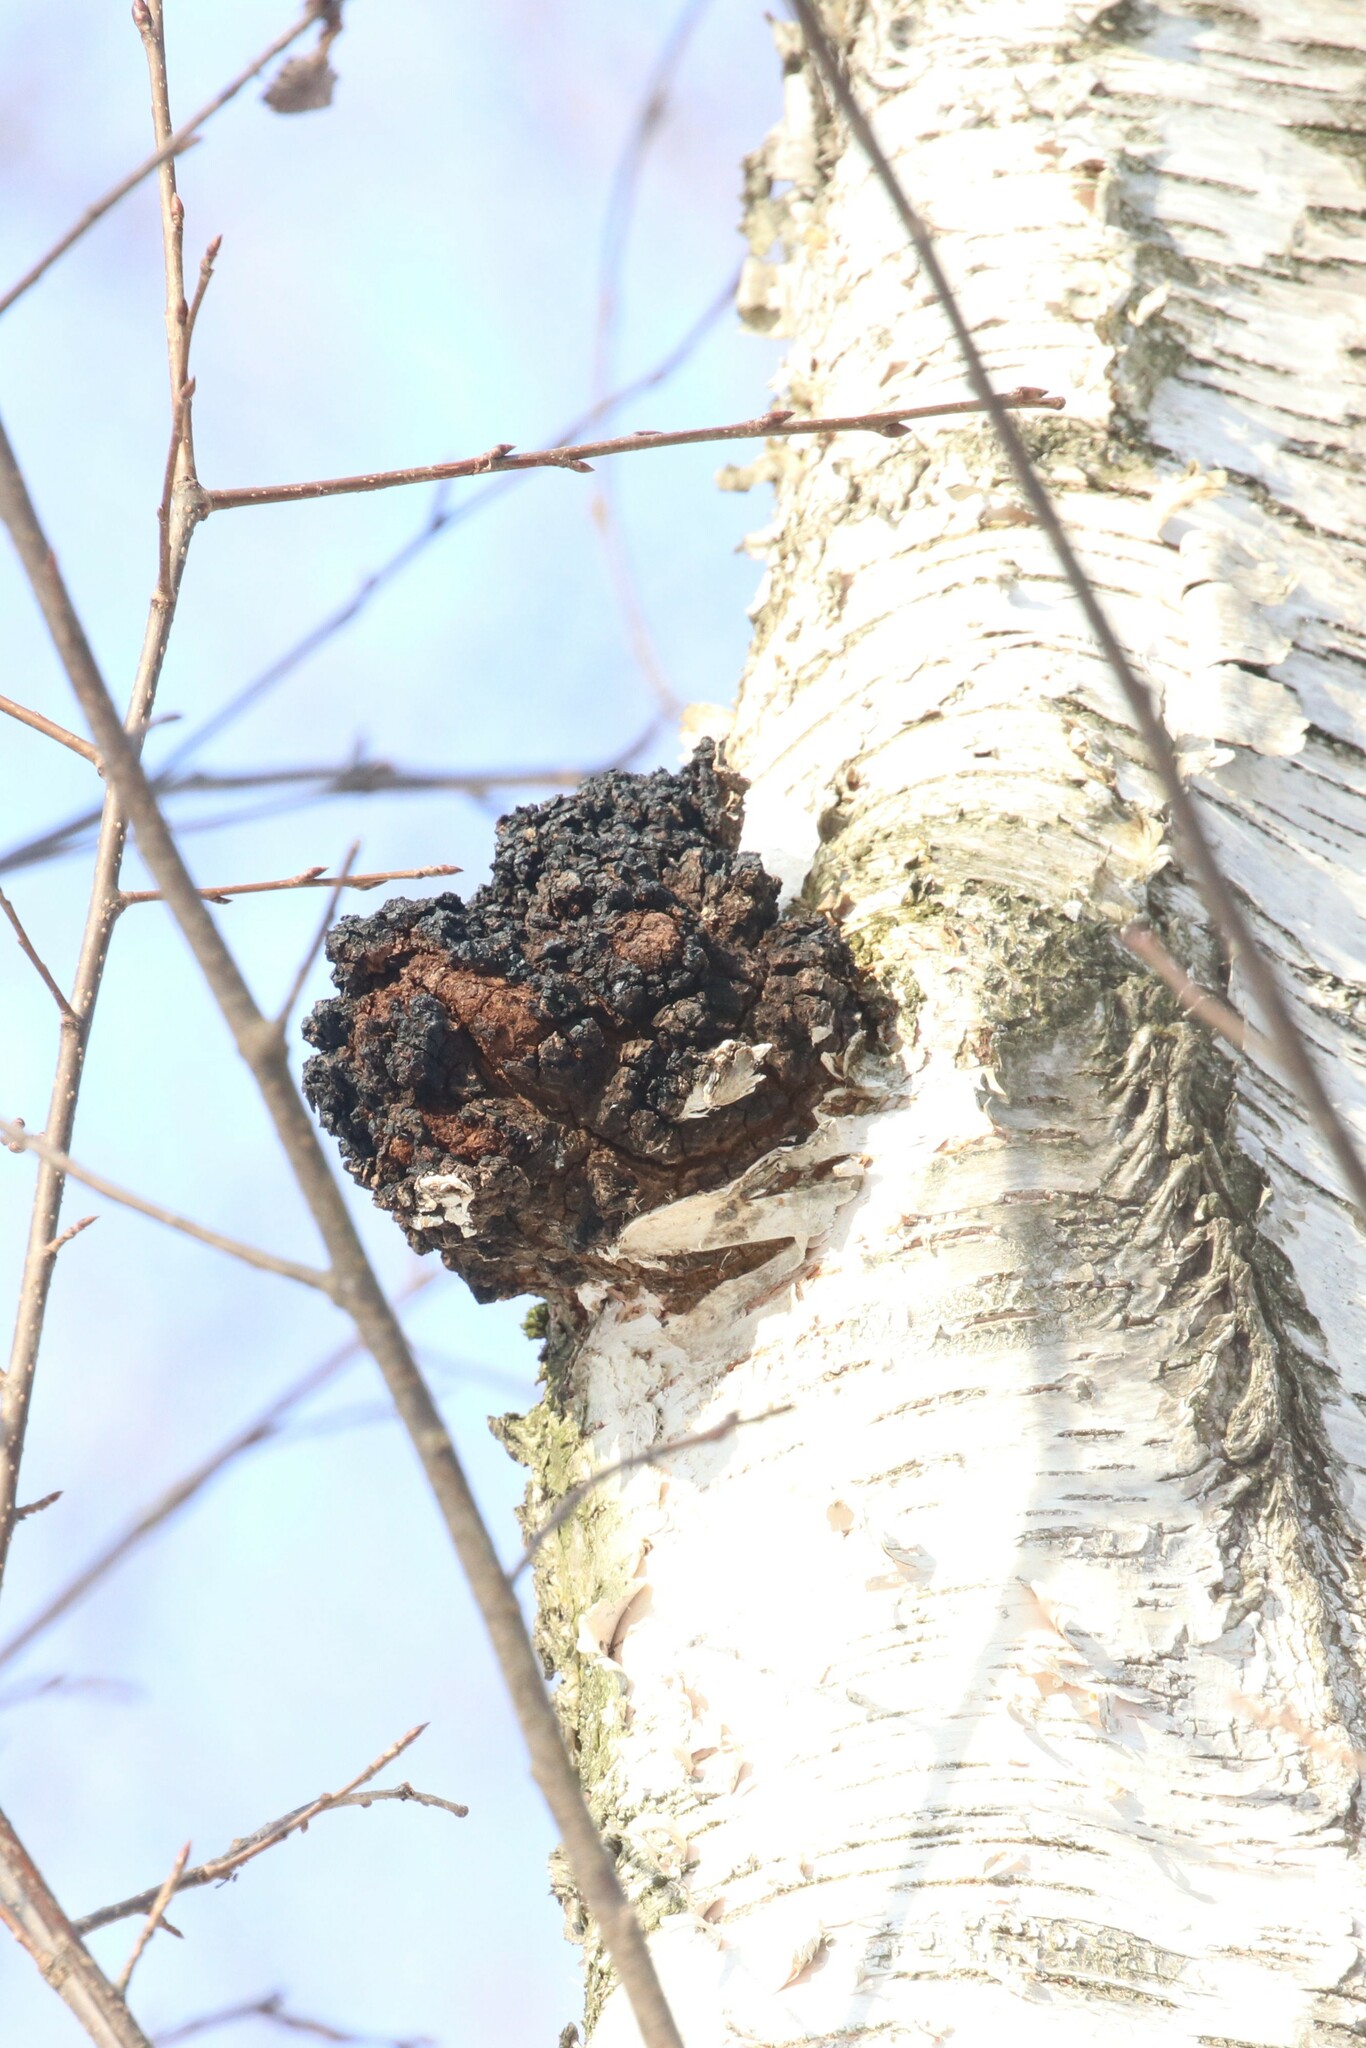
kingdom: Fungi
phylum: Basidiomycota
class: Agaricomycetes
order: Hymenochaetales
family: Hymenochaetaceae
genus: Inonotus
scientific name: Inonotus obliquus
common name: Chaga
